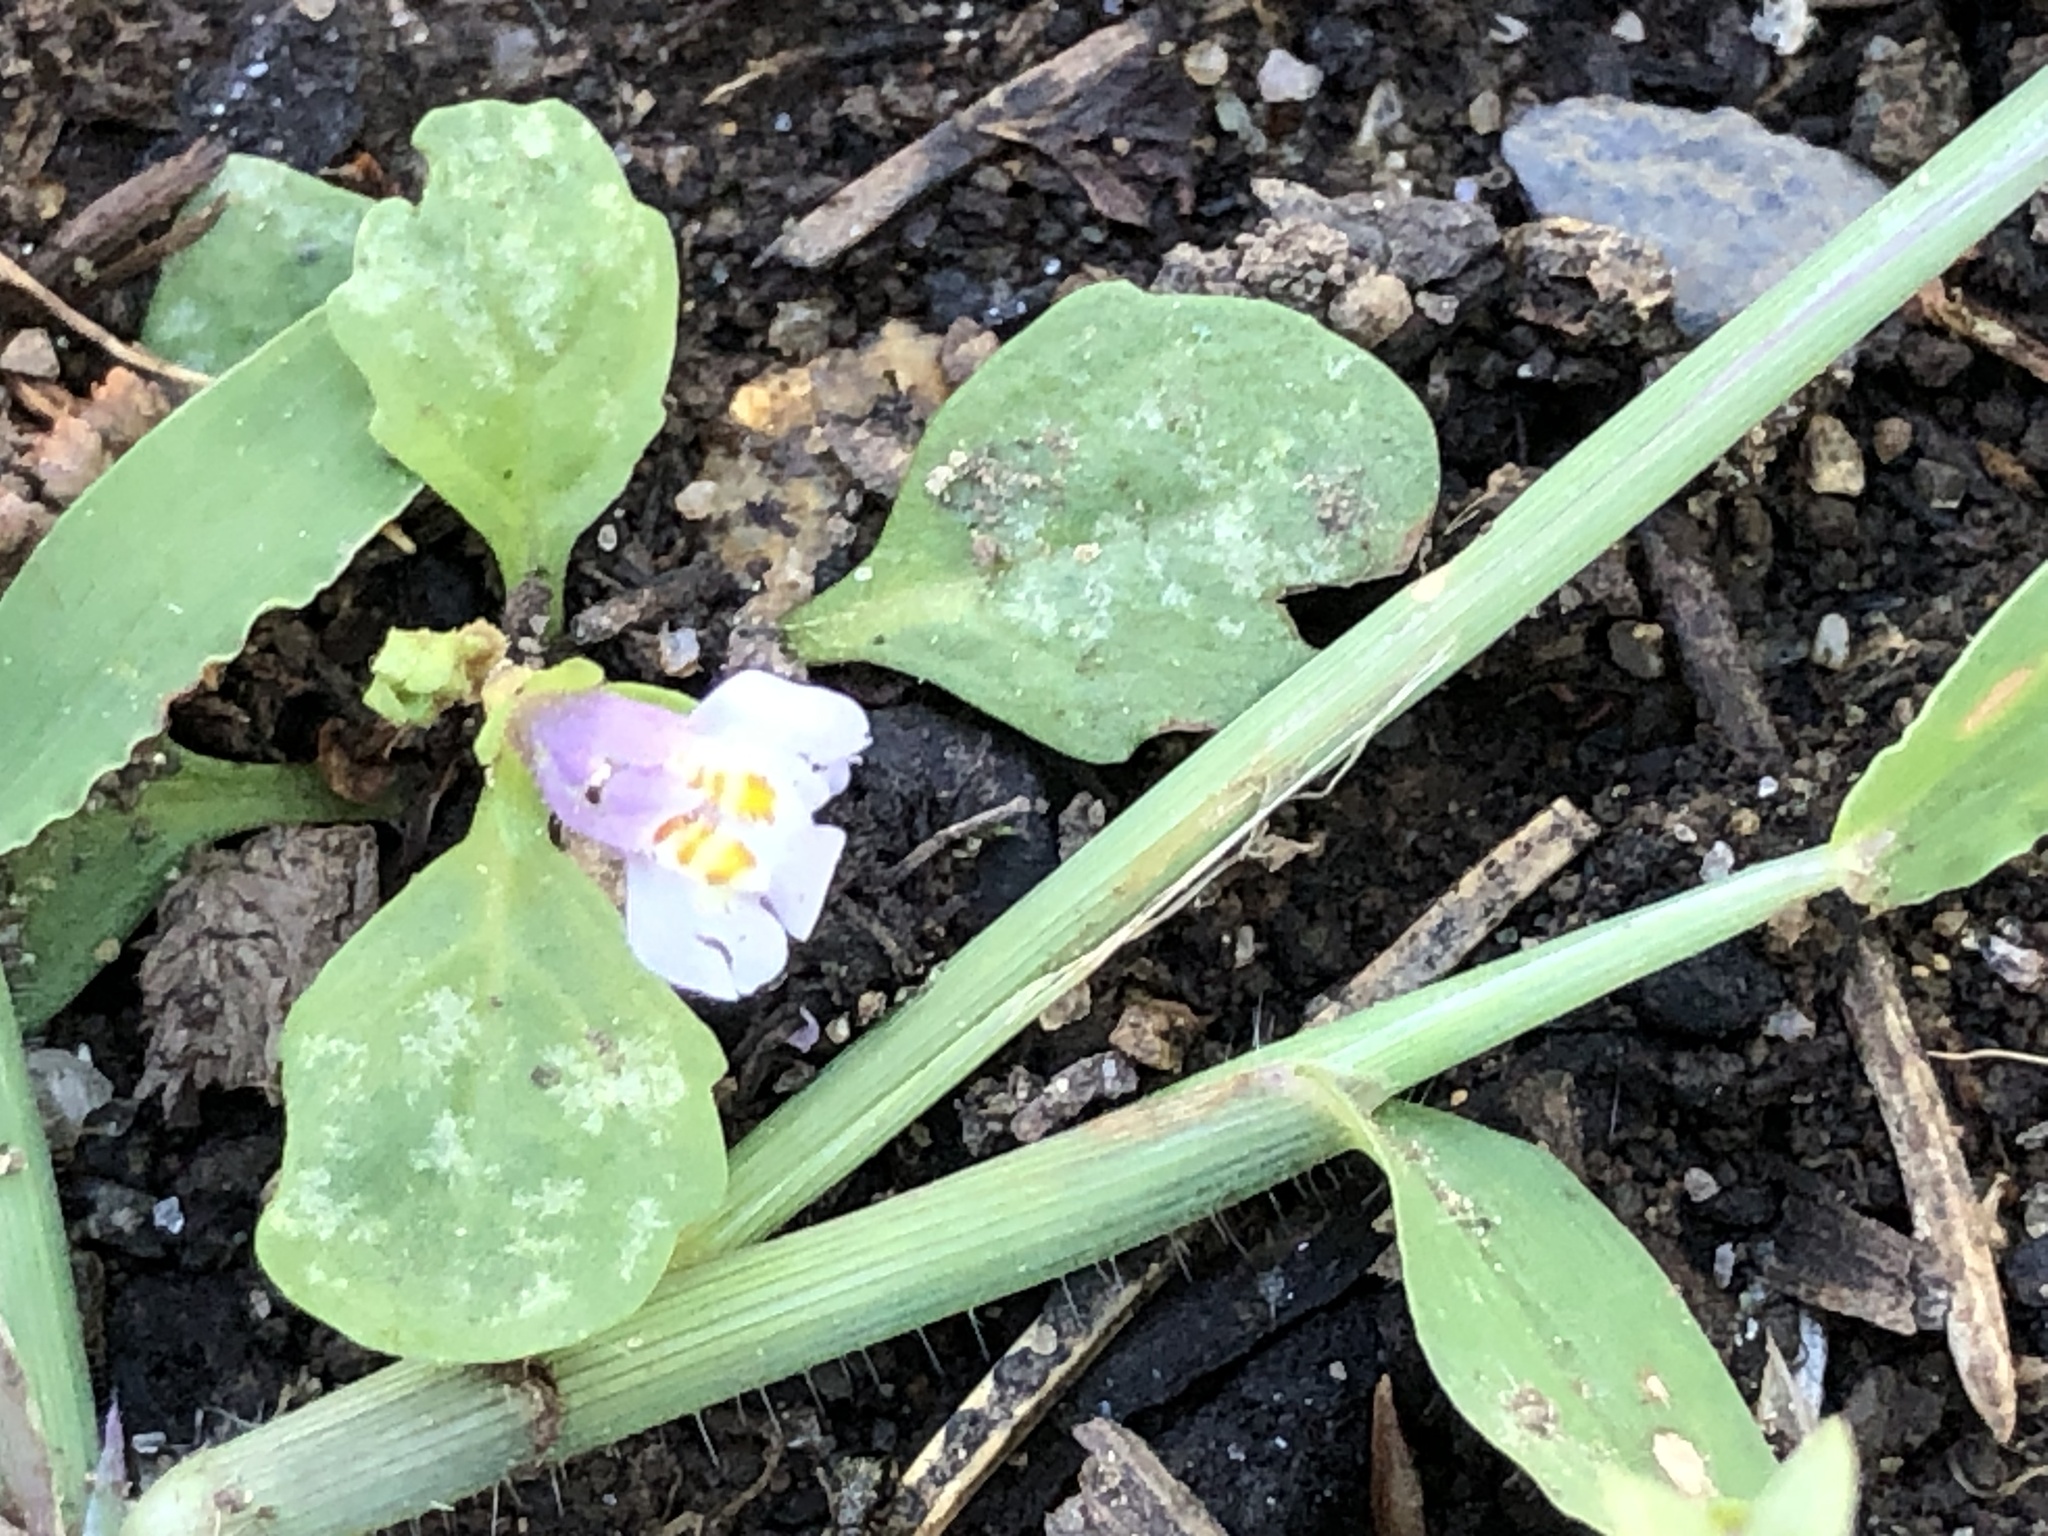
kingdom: Plantae
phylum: Tracheophyta
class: Magnoliopsida
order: Lamiales
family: Mazaceae
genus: Mazus
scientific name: Mazus pumilus
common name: Japanese mazus
